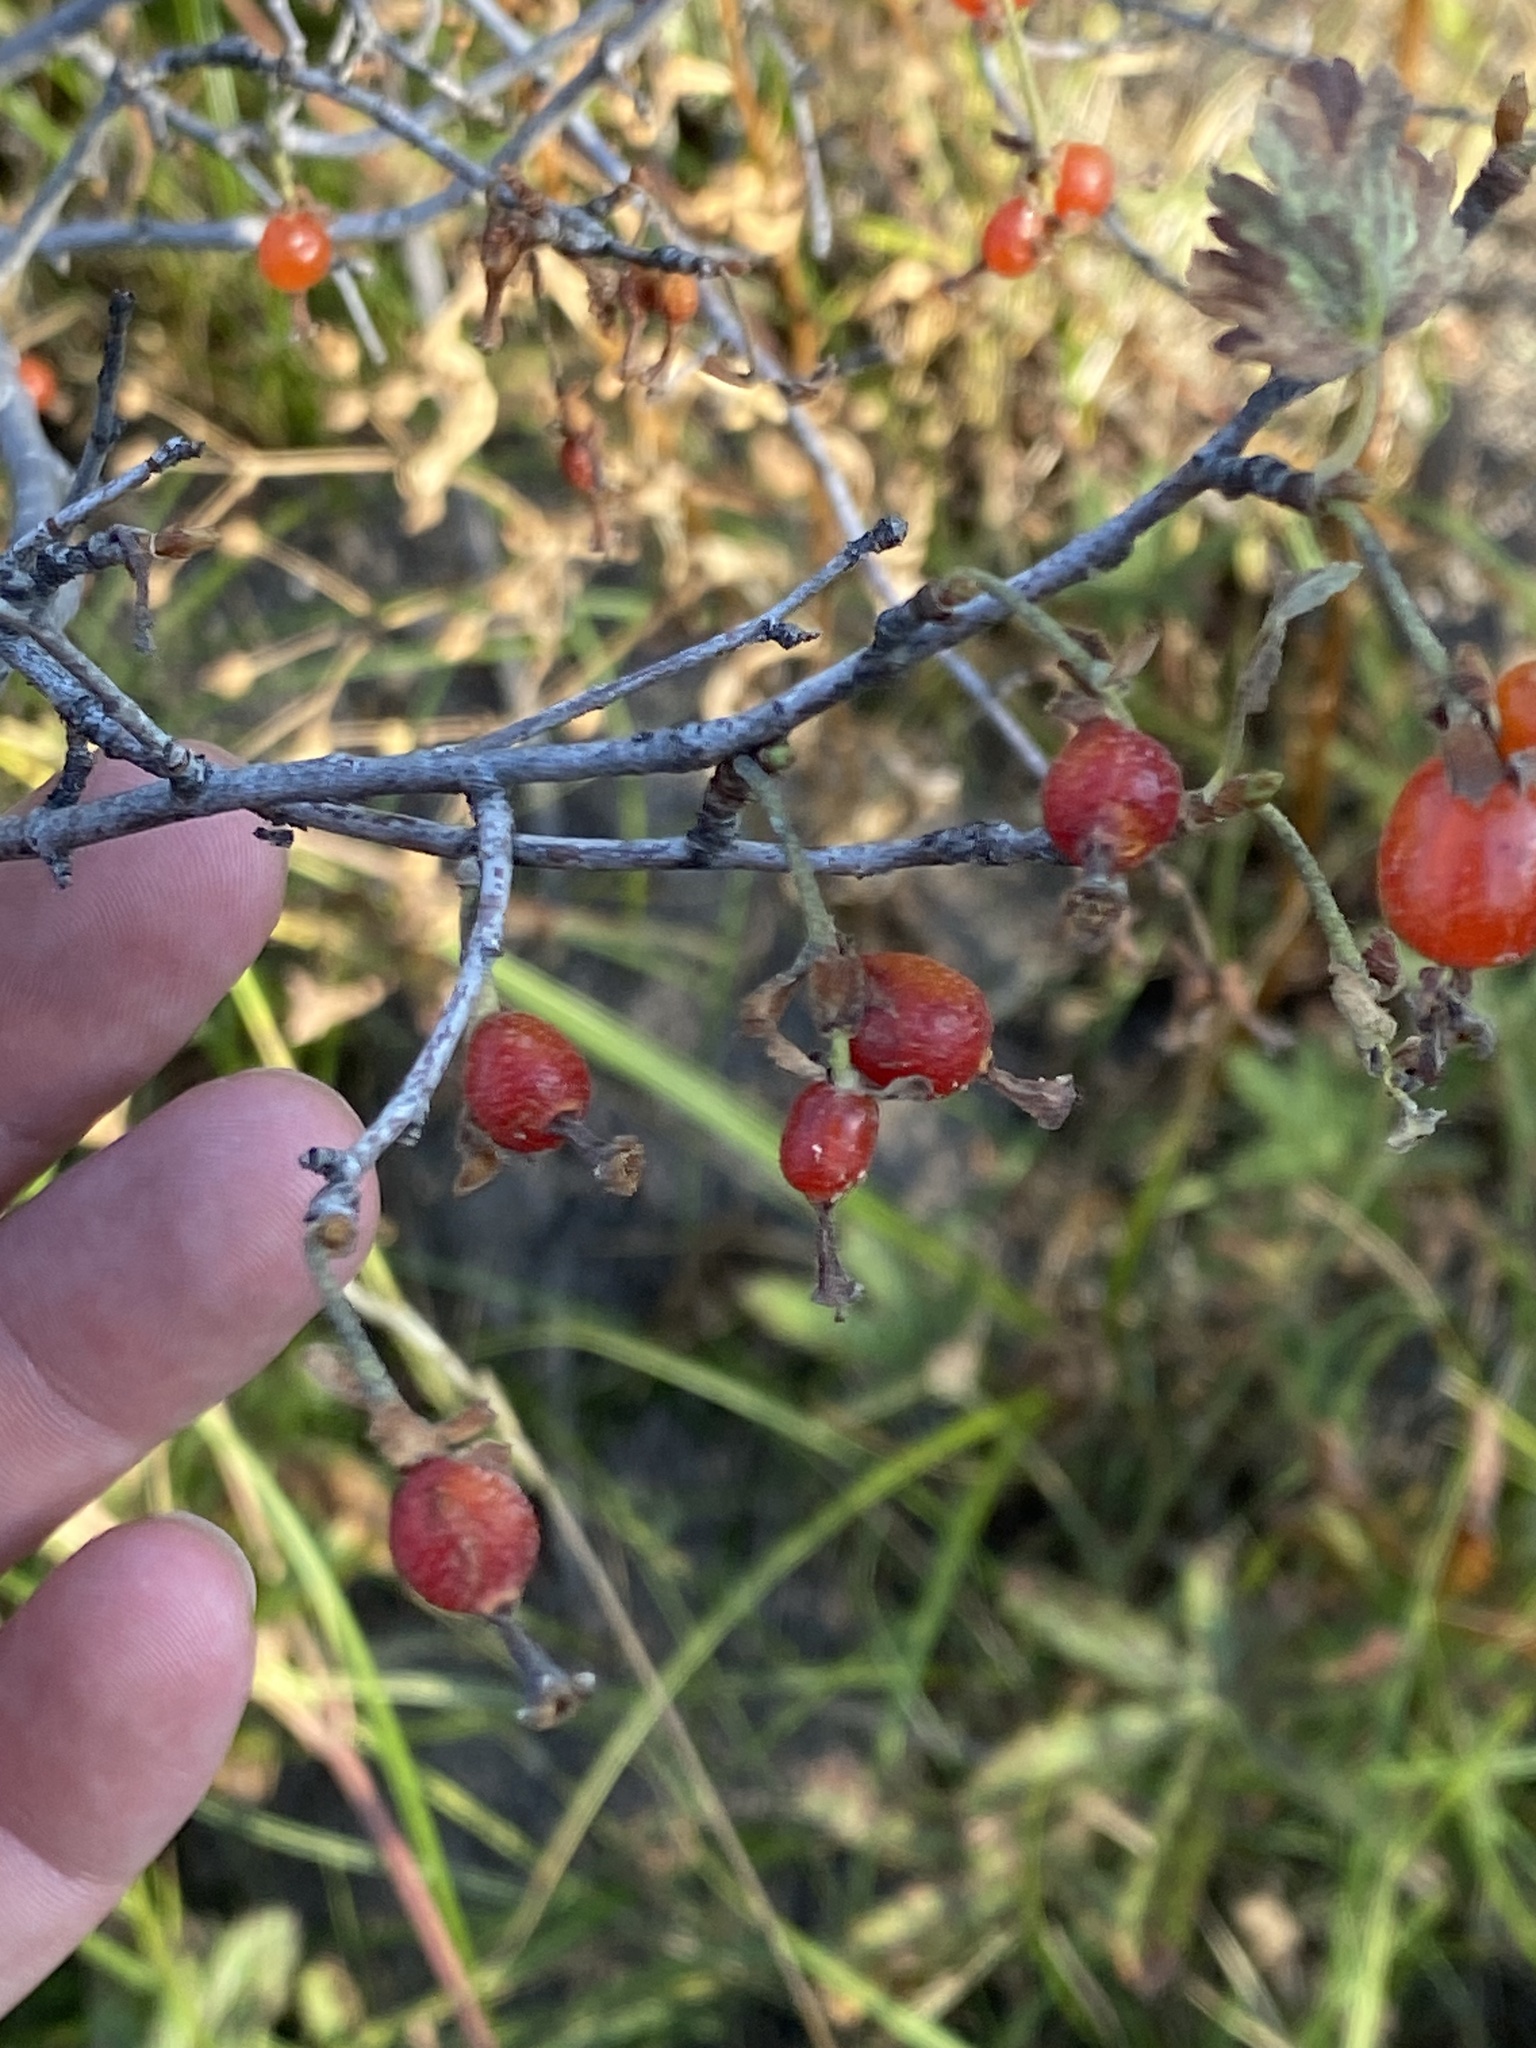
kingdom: Plantae
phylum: Tracheophyta
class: Magnoliopsida
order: Saxifragales
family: Grossulariaceae
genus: Ribes
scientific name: Ribes cereum
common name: Wax currant
